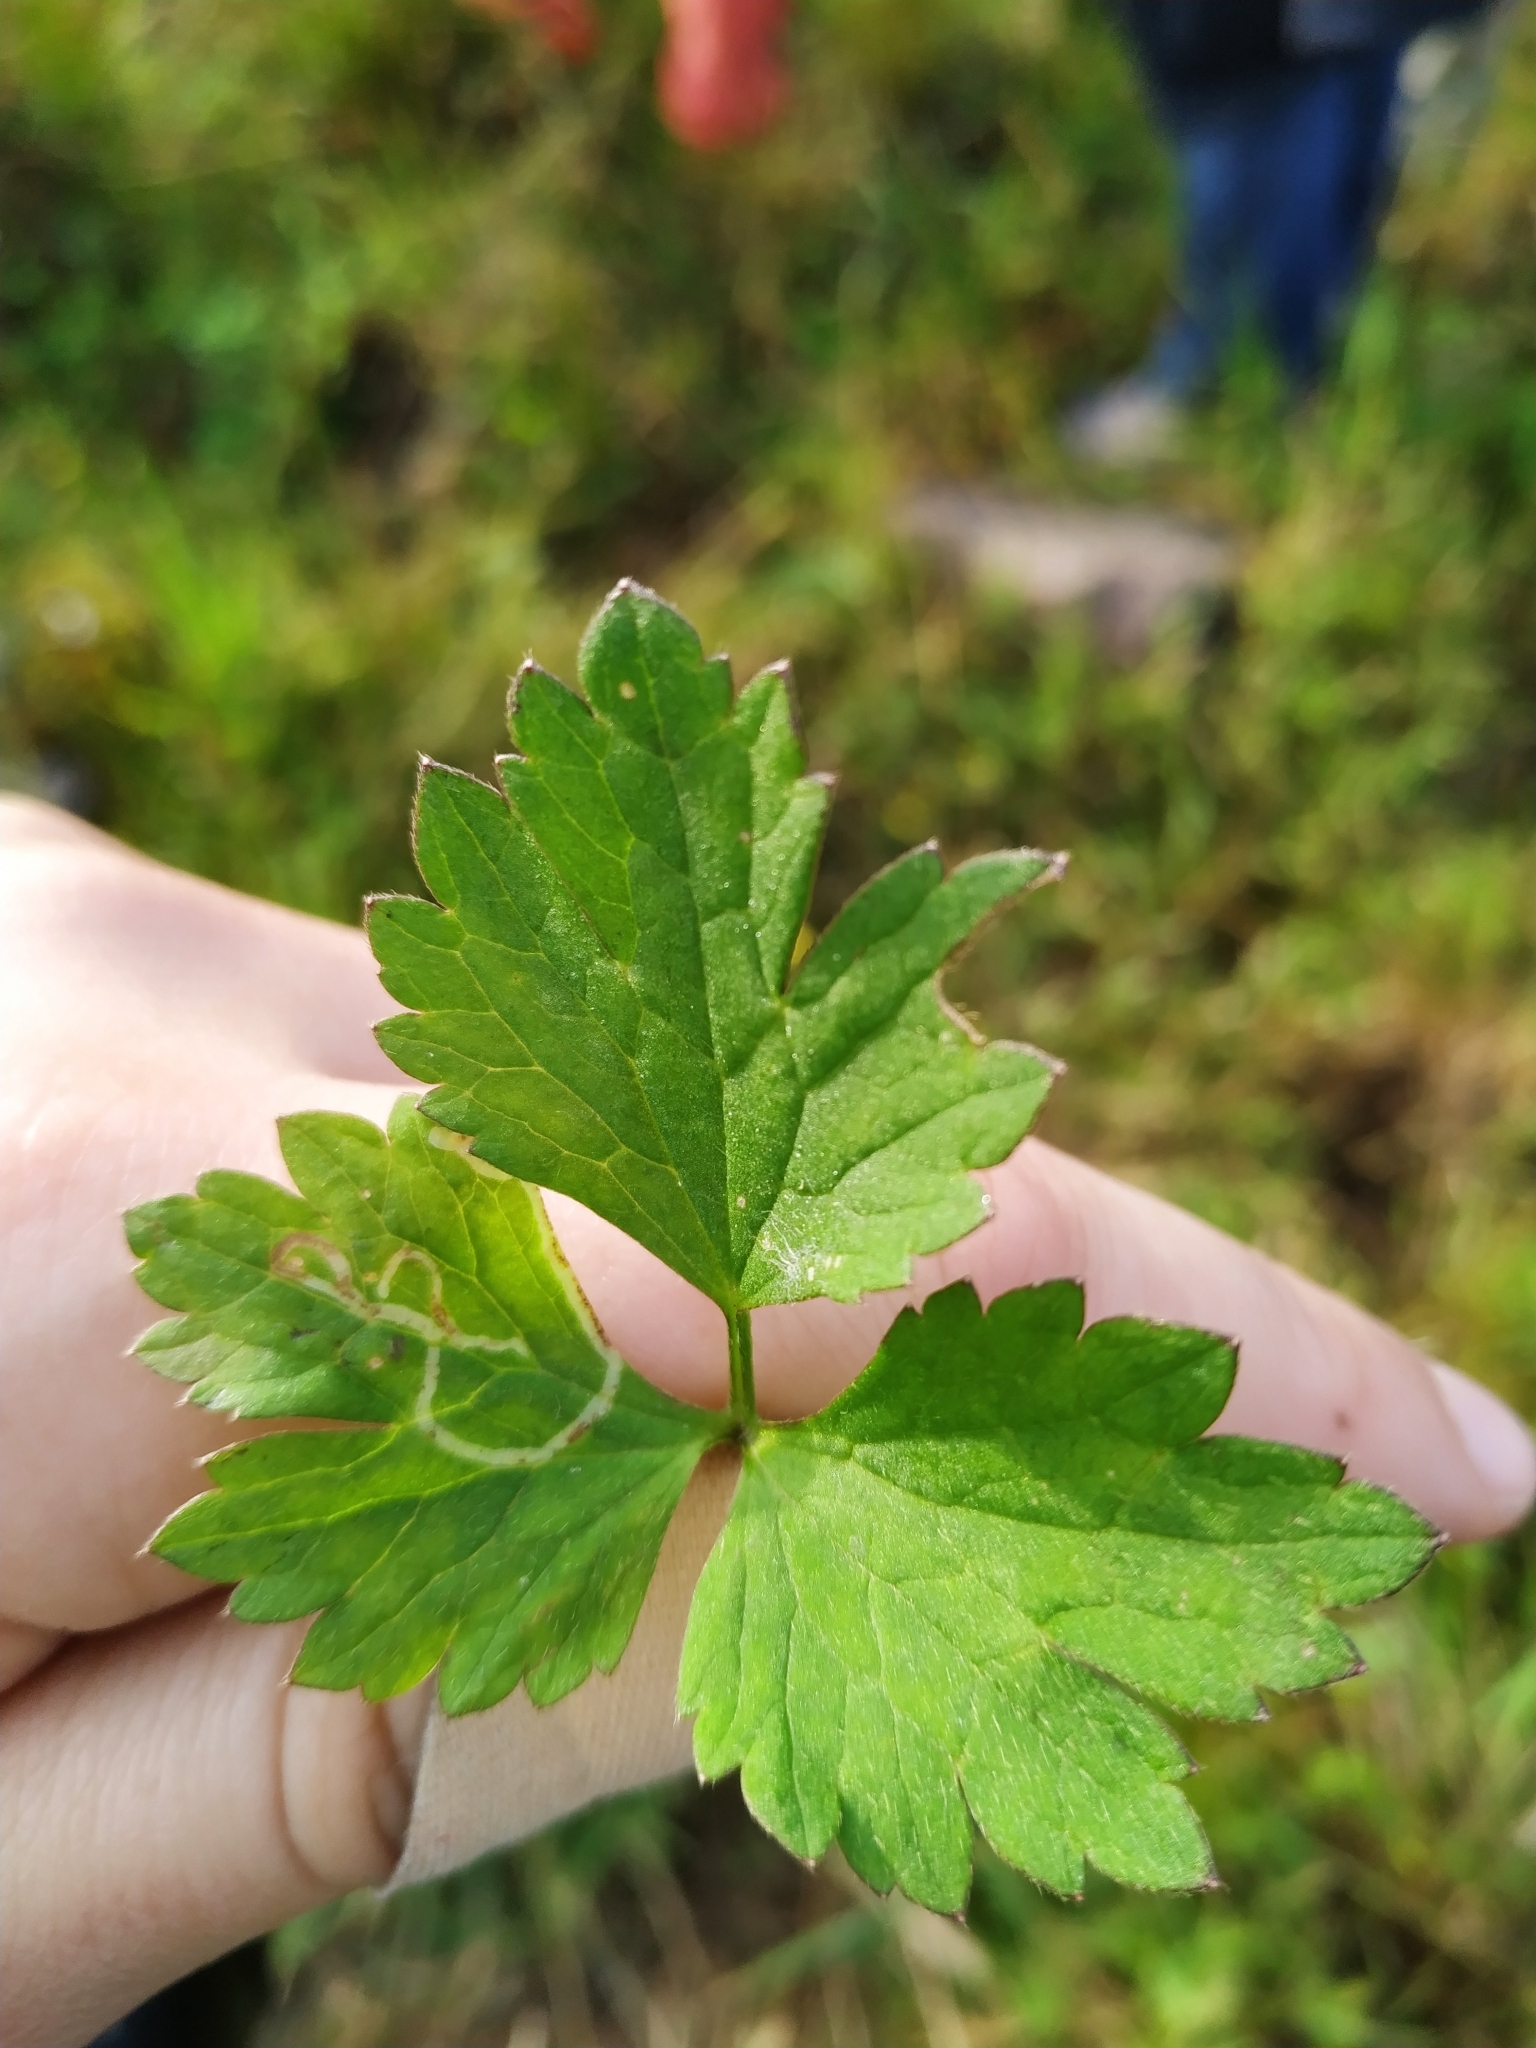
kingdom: Plantae
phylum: Tracheophyta
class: Magnoliopsida
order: Ranunculales
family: Ranunculaceae
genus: Ranunculus
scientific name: Ranunculus repens
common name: Creeping buttercup
